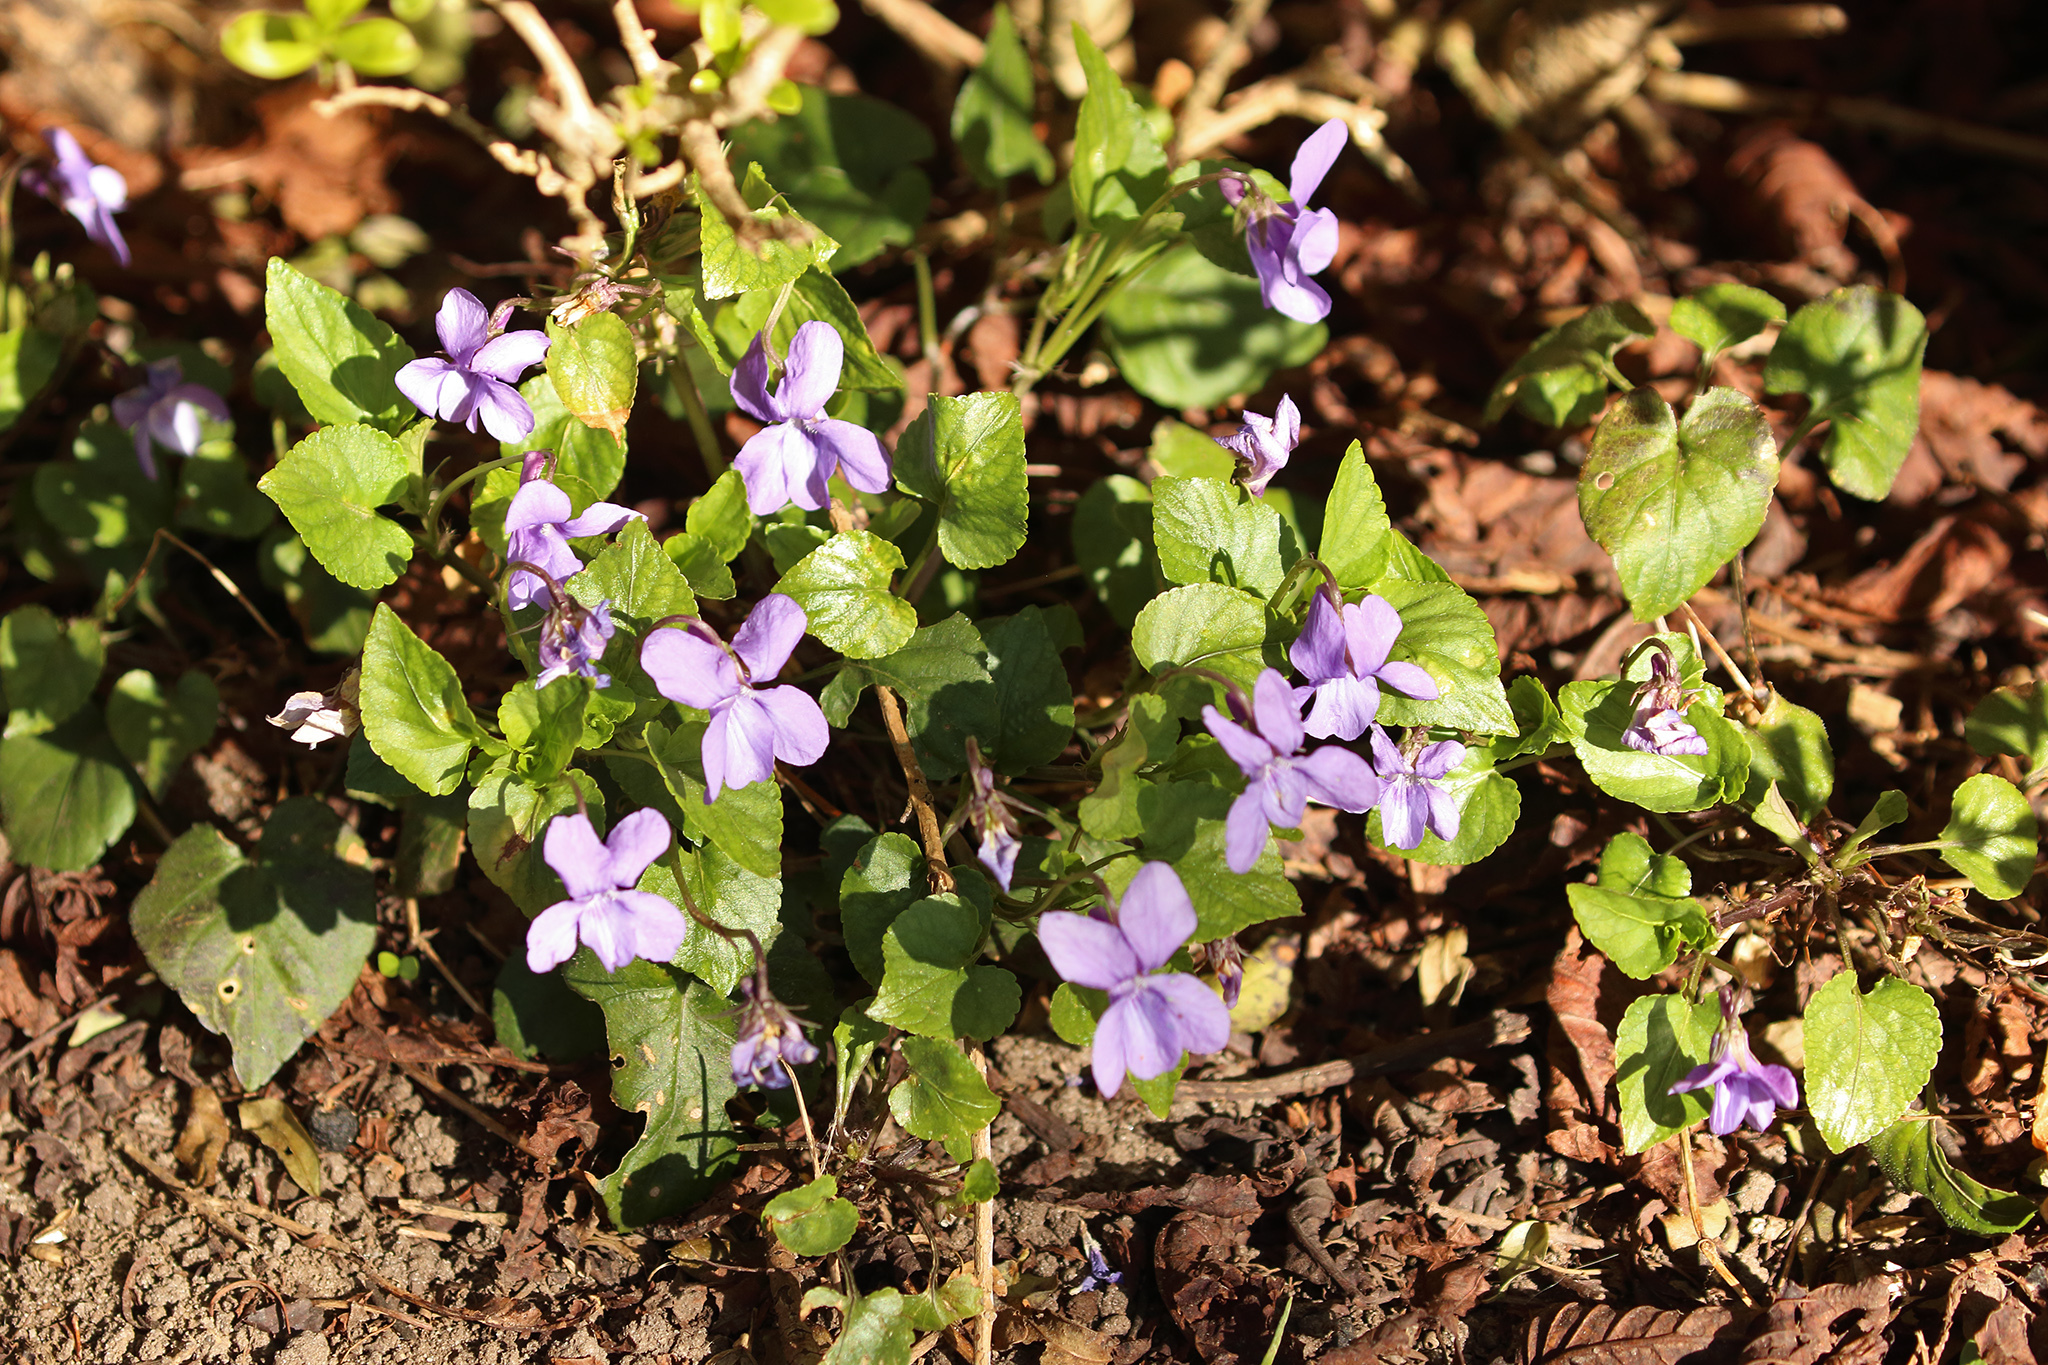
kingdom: Plantae
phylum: Tracheophyta
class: Magnoliopsida
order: Malpighiales
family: Violaceae
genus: Viola
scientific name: Viola reichenbachiana
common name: Early dog-violet
